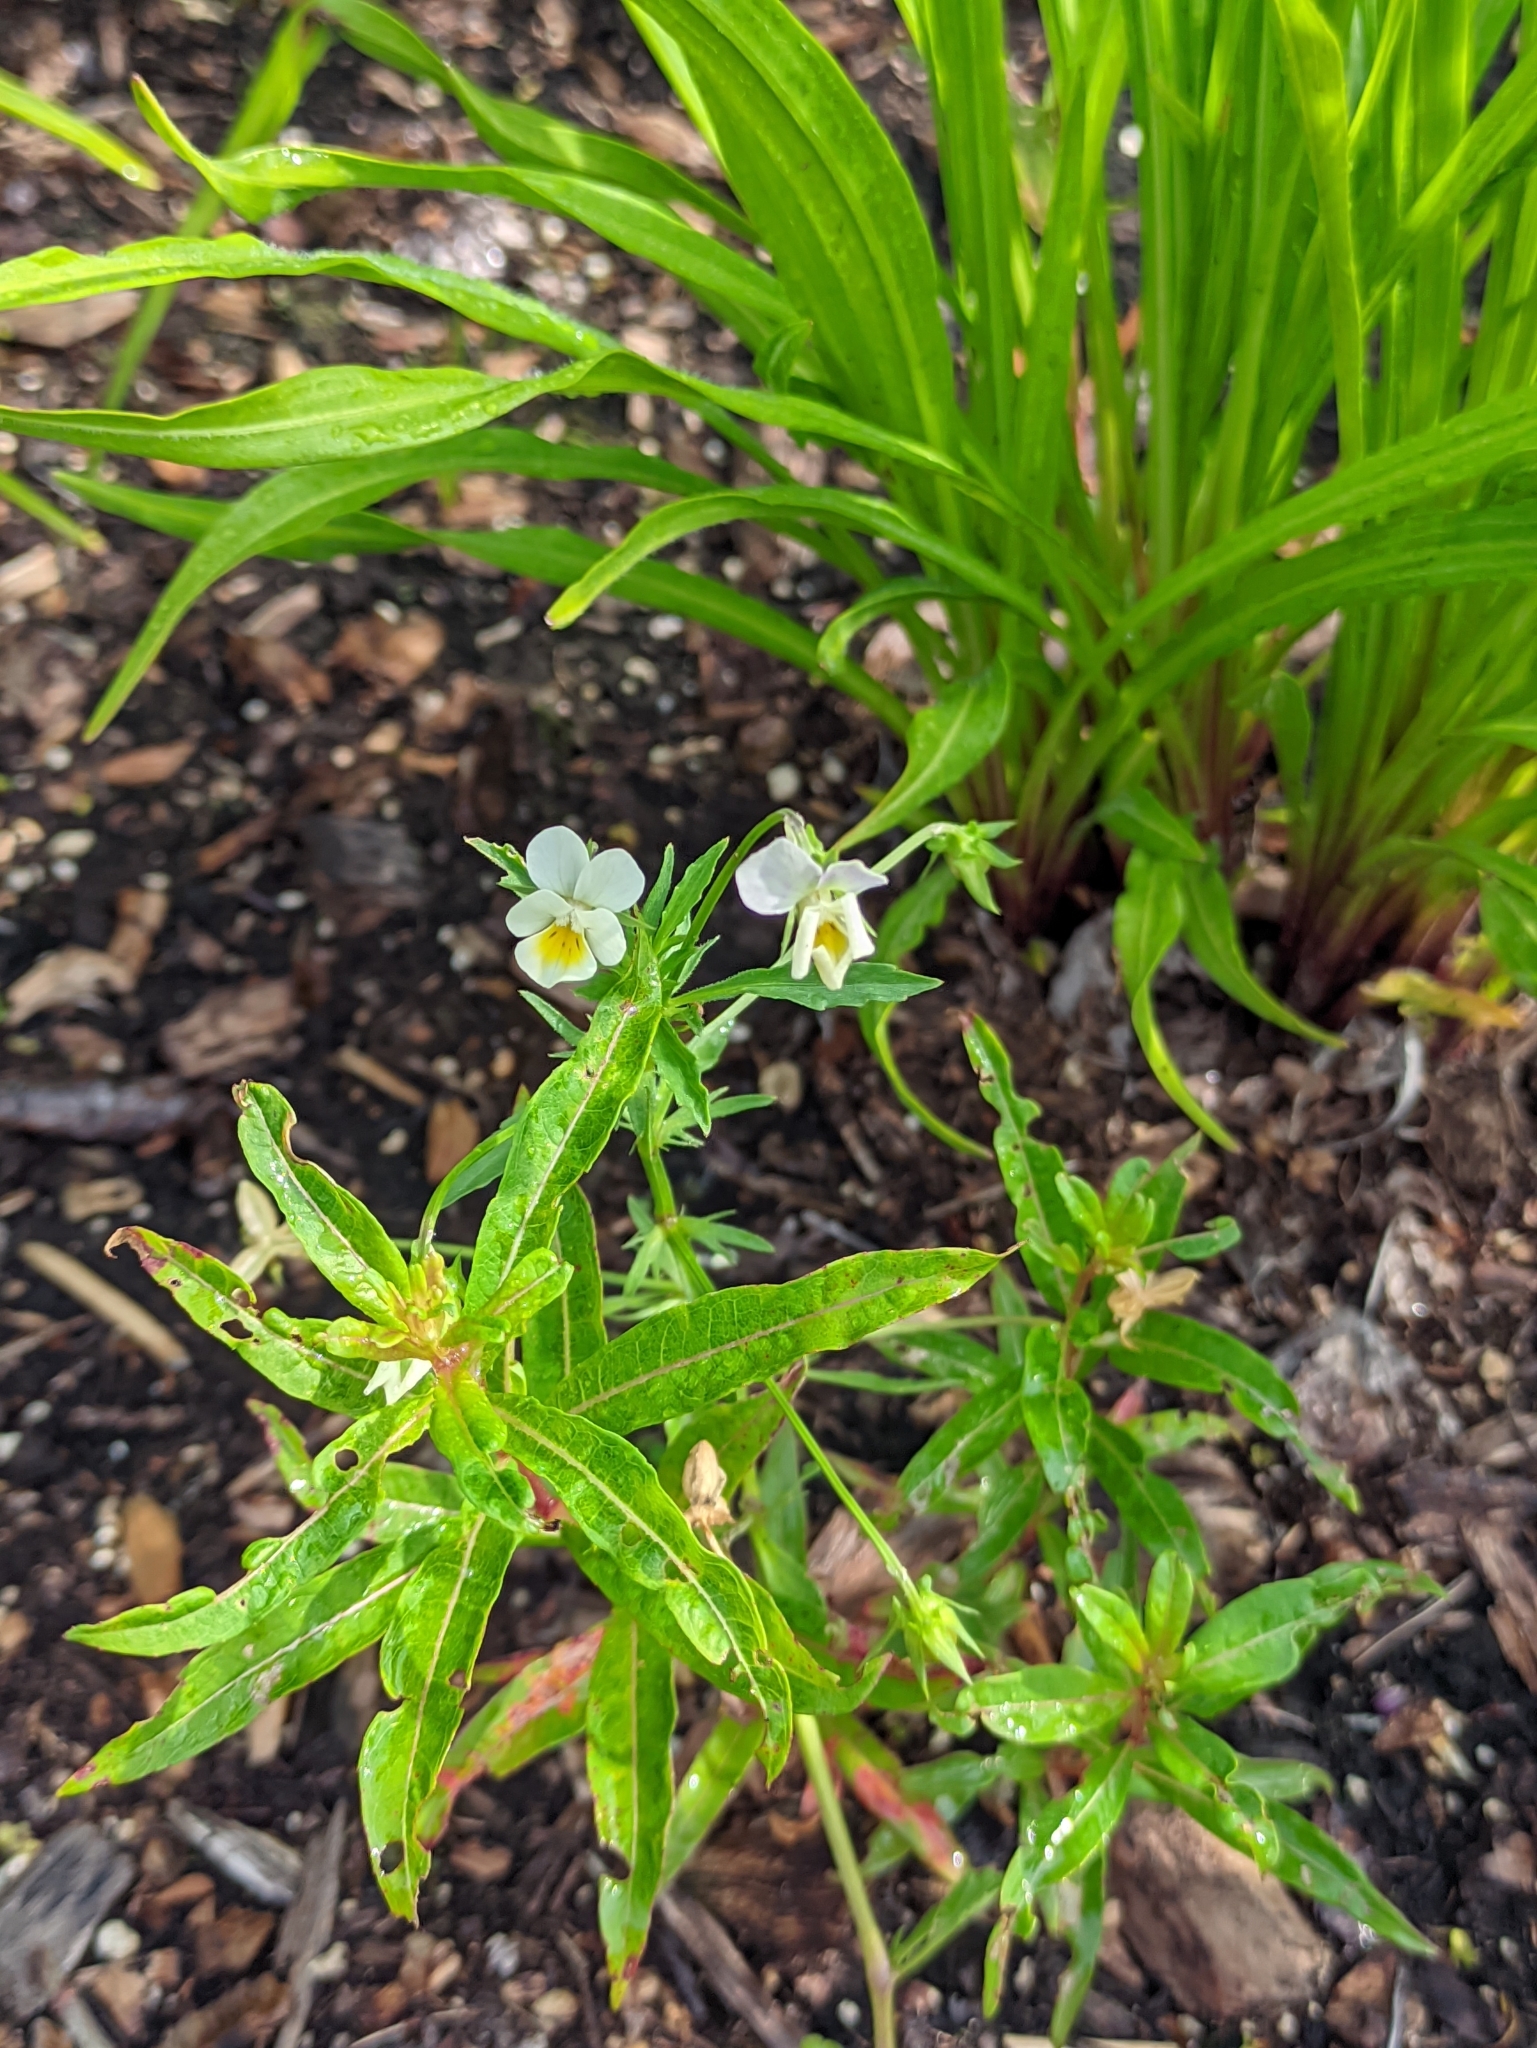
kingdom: Plantae
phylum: Tracheophyta
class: Magnoliopsida
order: Malpighiales
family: Violaceae
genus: Viola
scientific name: Viola arvensis
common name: Field pansy
